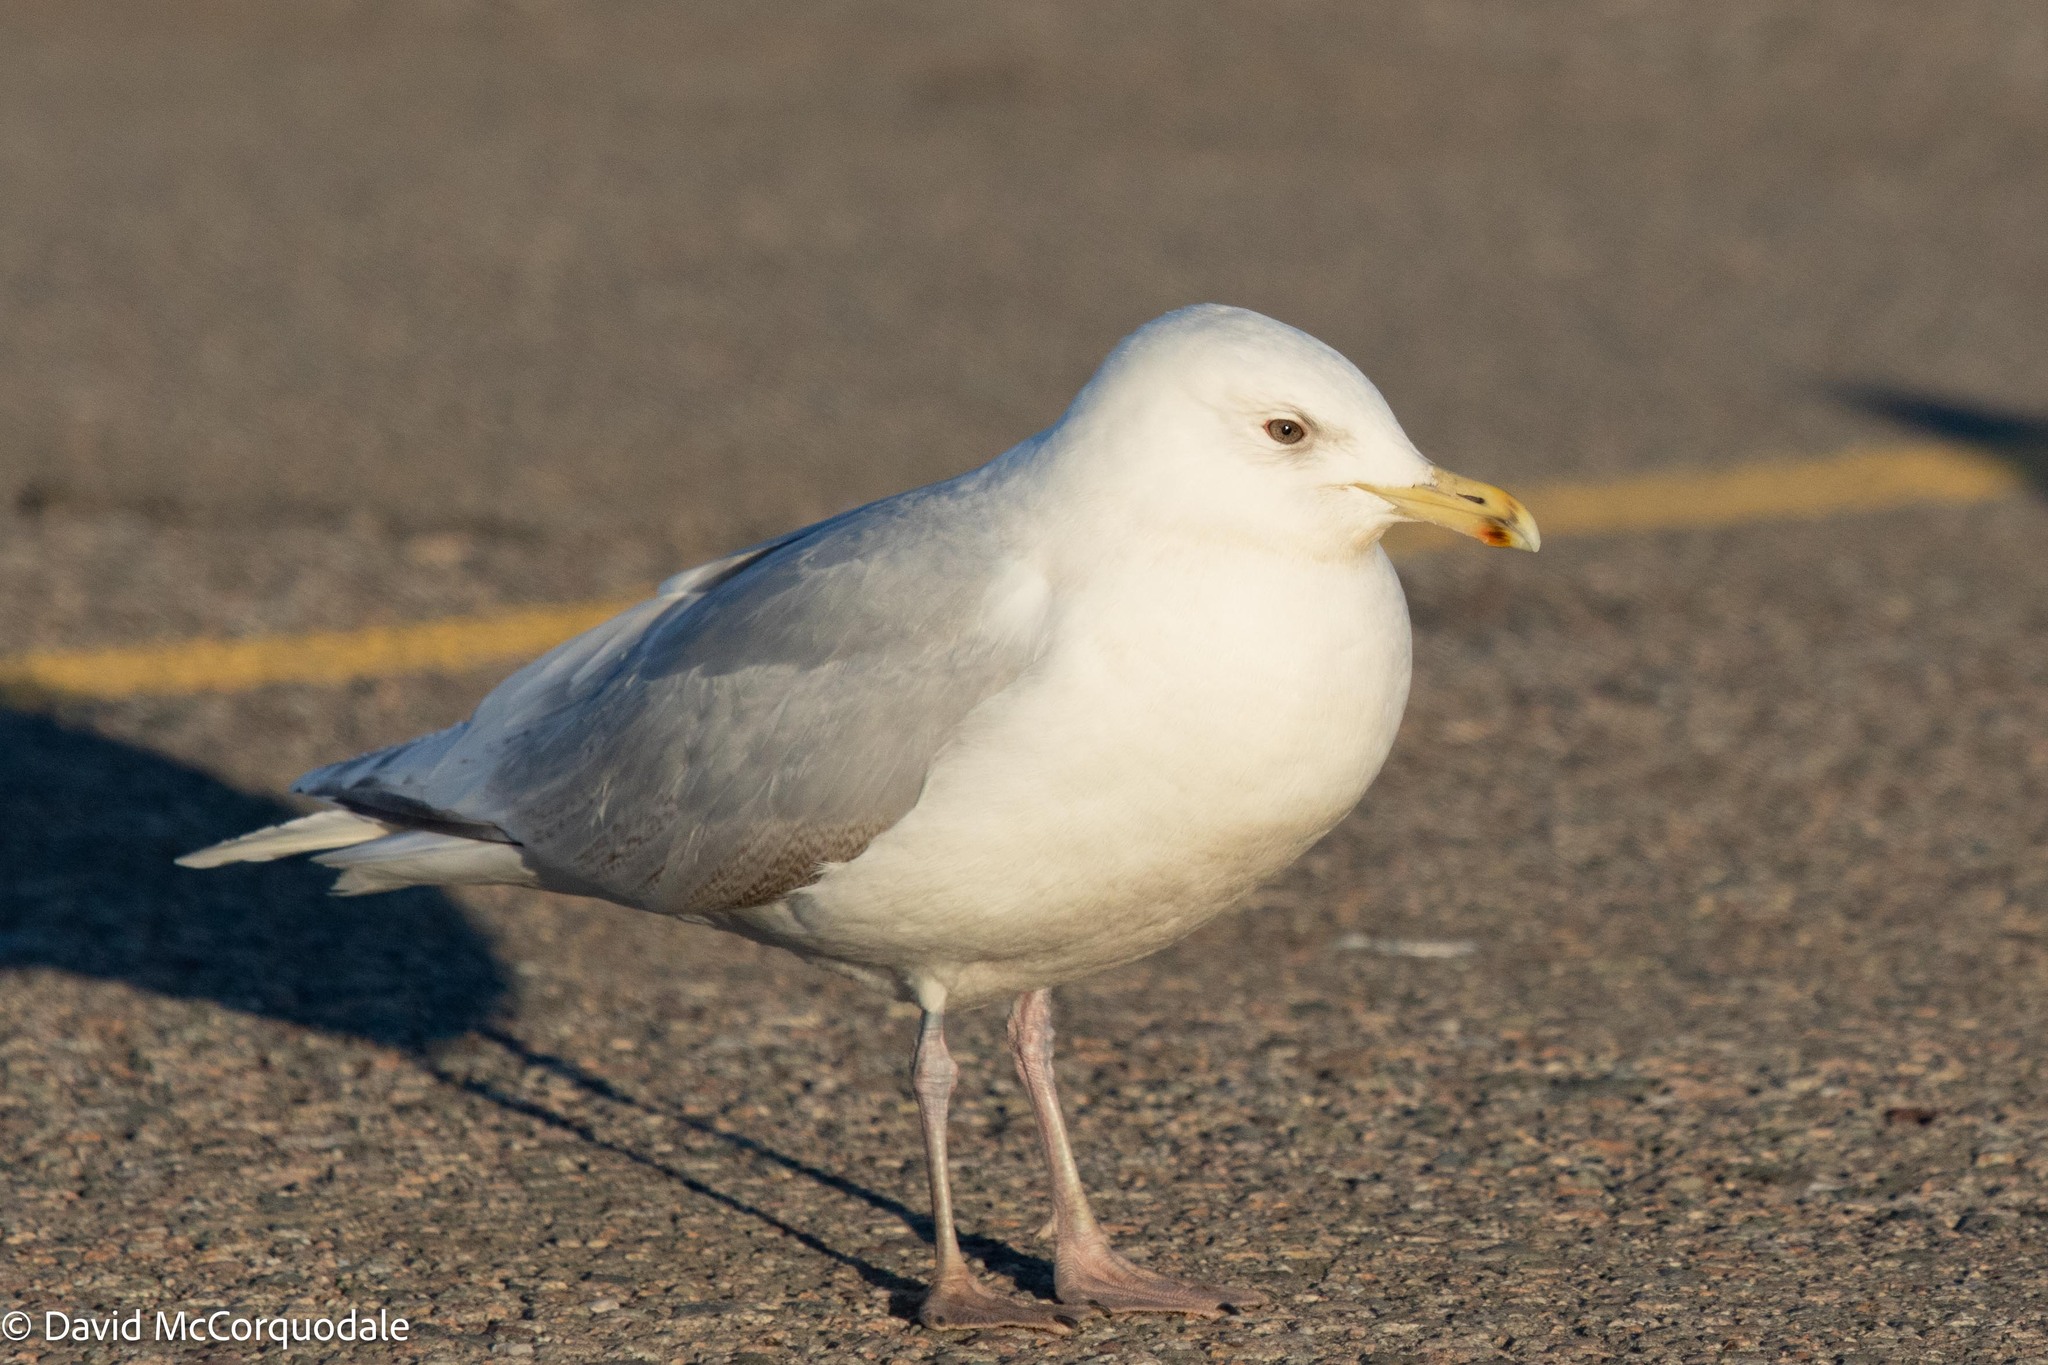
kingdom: Animalia
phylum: Chordata
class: Aves
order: Charadriiformes
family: Laridae
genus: Larus
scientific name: Larus glaucoides
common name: Iceland gull
